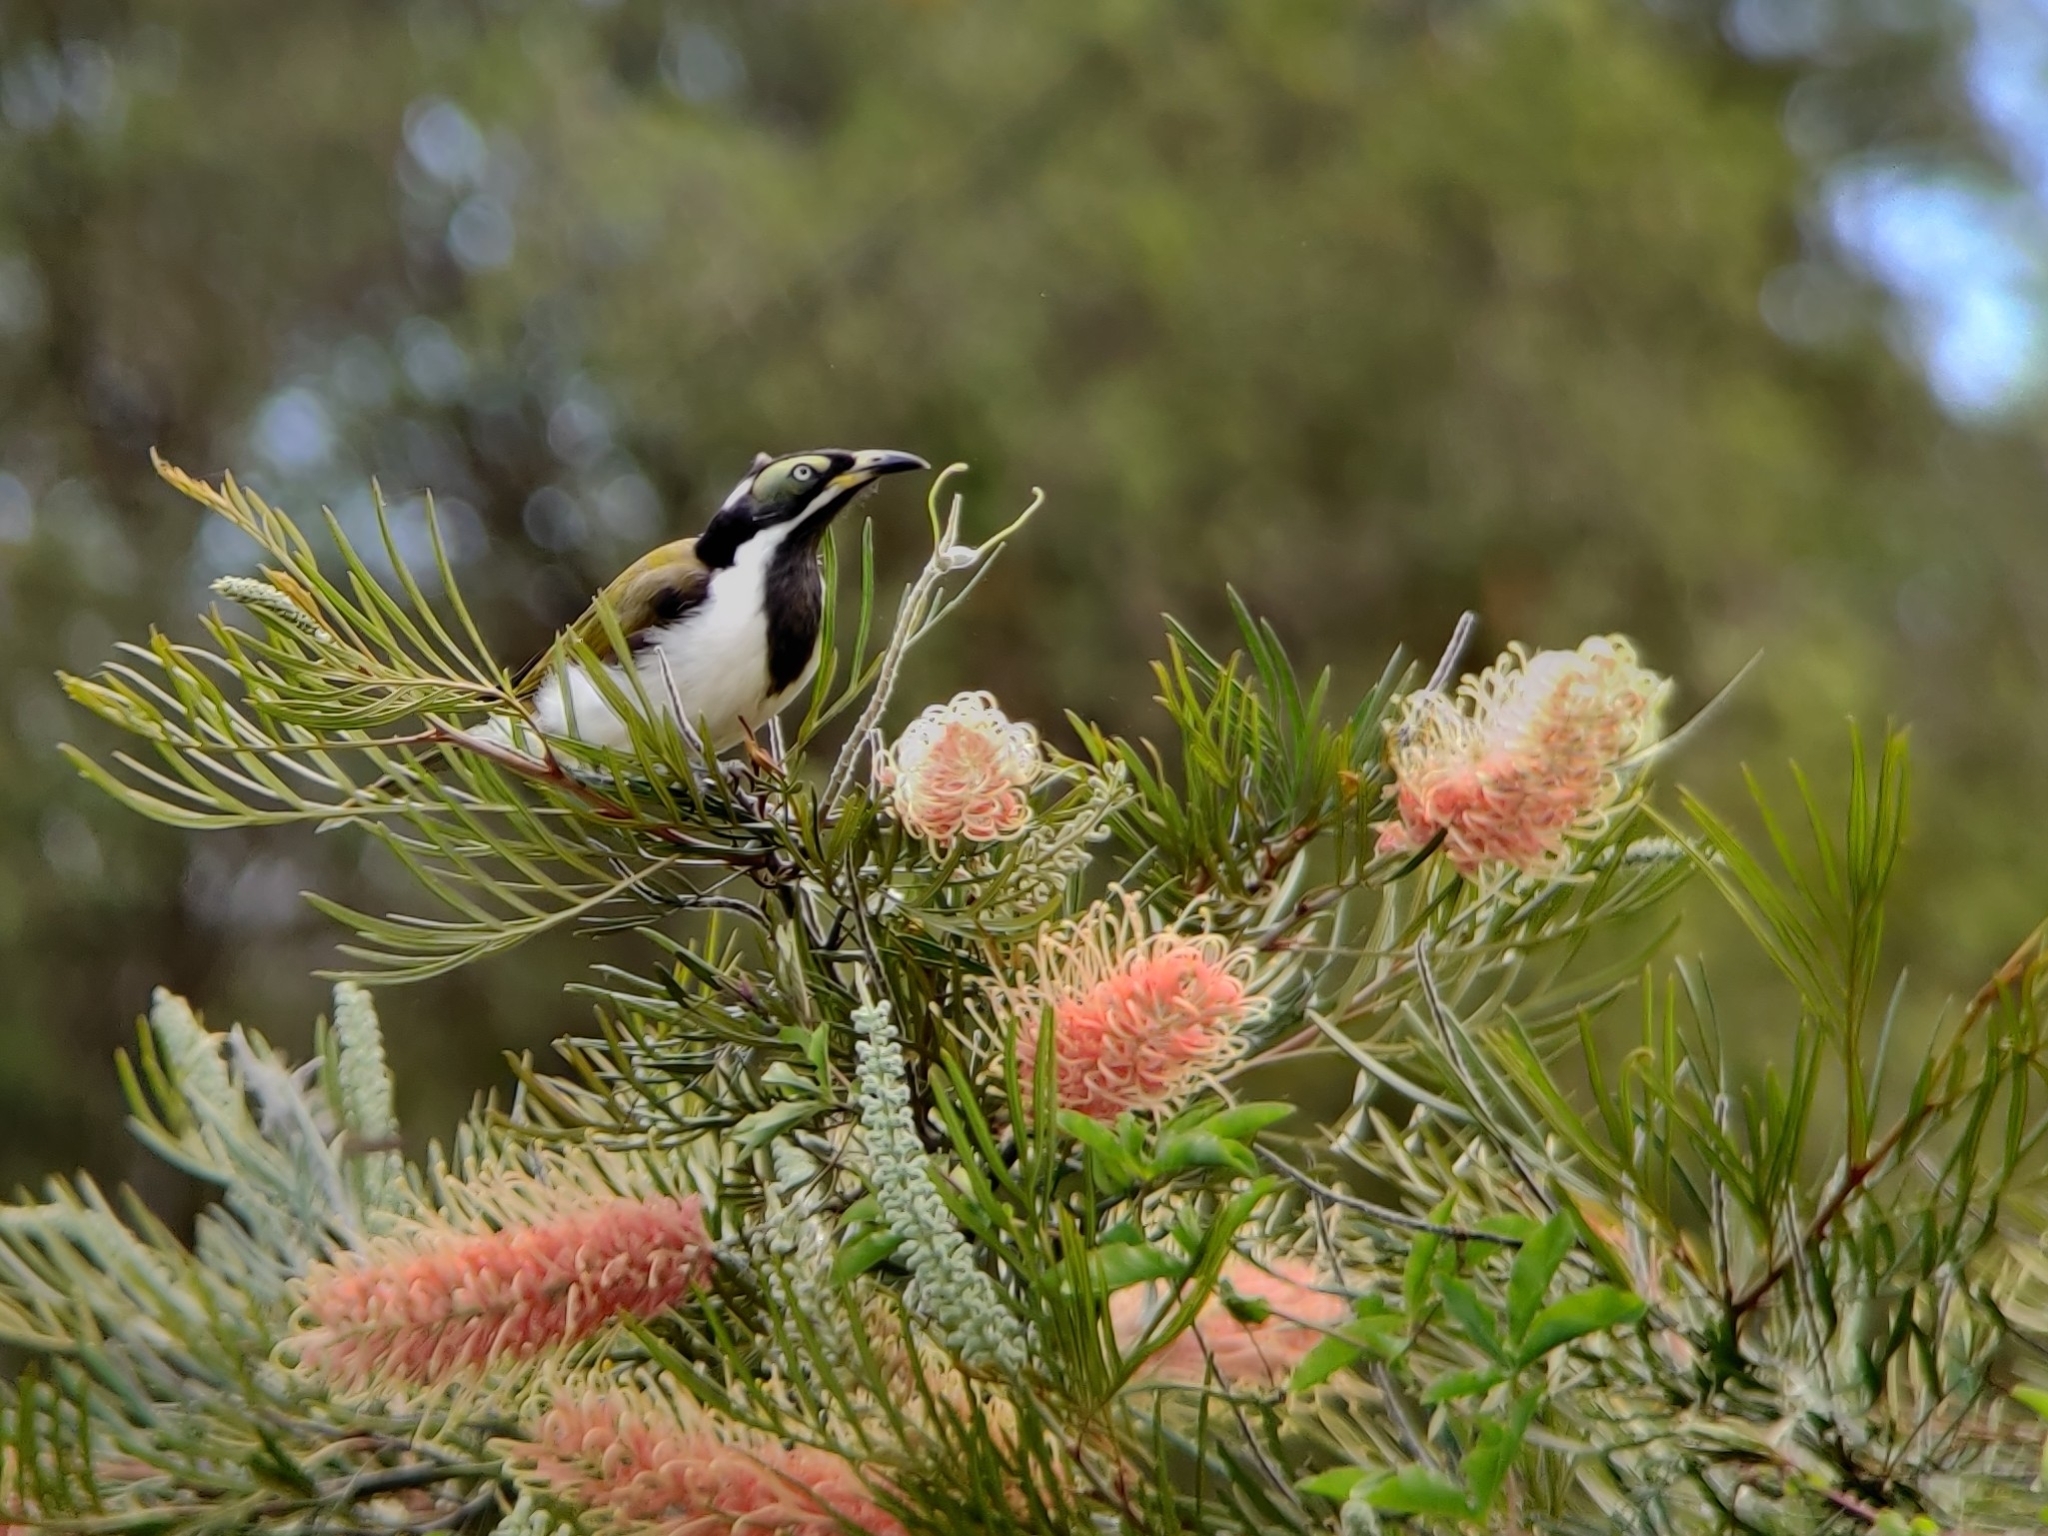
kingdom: Animalia
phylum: Chordata
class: Aves
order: Passeriformes
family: Meliphagidae
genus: Entomyzon
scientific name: Entomyzon cyanotis
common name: Blue-faced honeyeater
